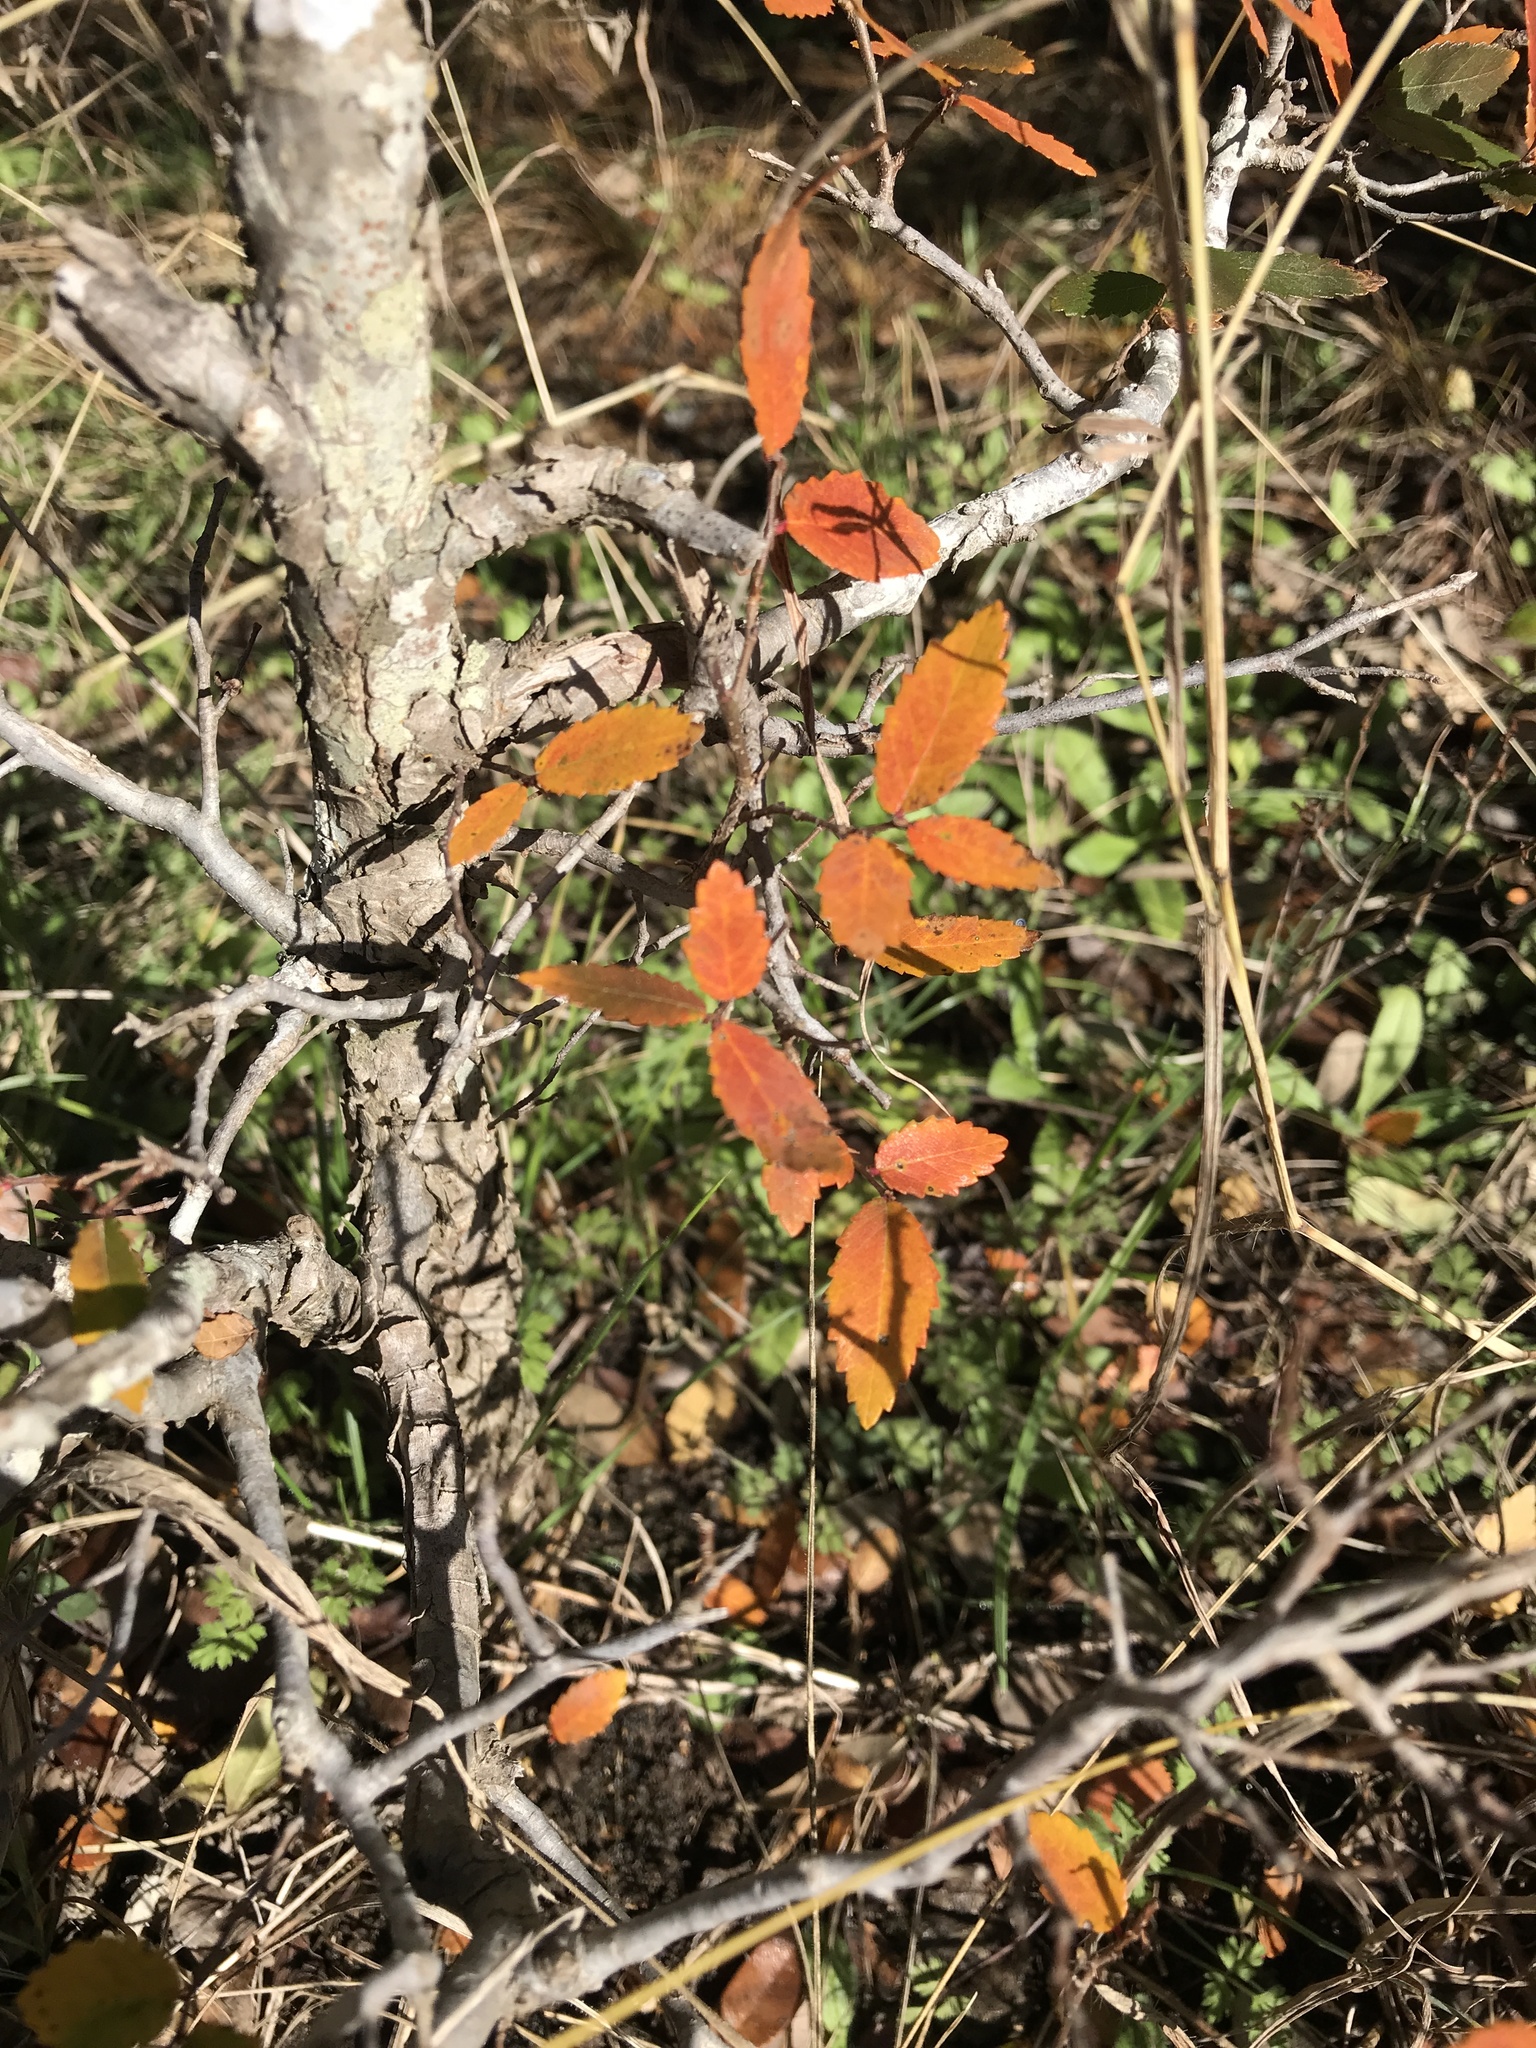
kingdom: Plantae
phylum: Tracheophyta
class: Magnoliopsida
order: Rosales
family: Ulmaceae
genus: Ulmus
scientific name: Ulmus crassifolia
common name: Basket elm
